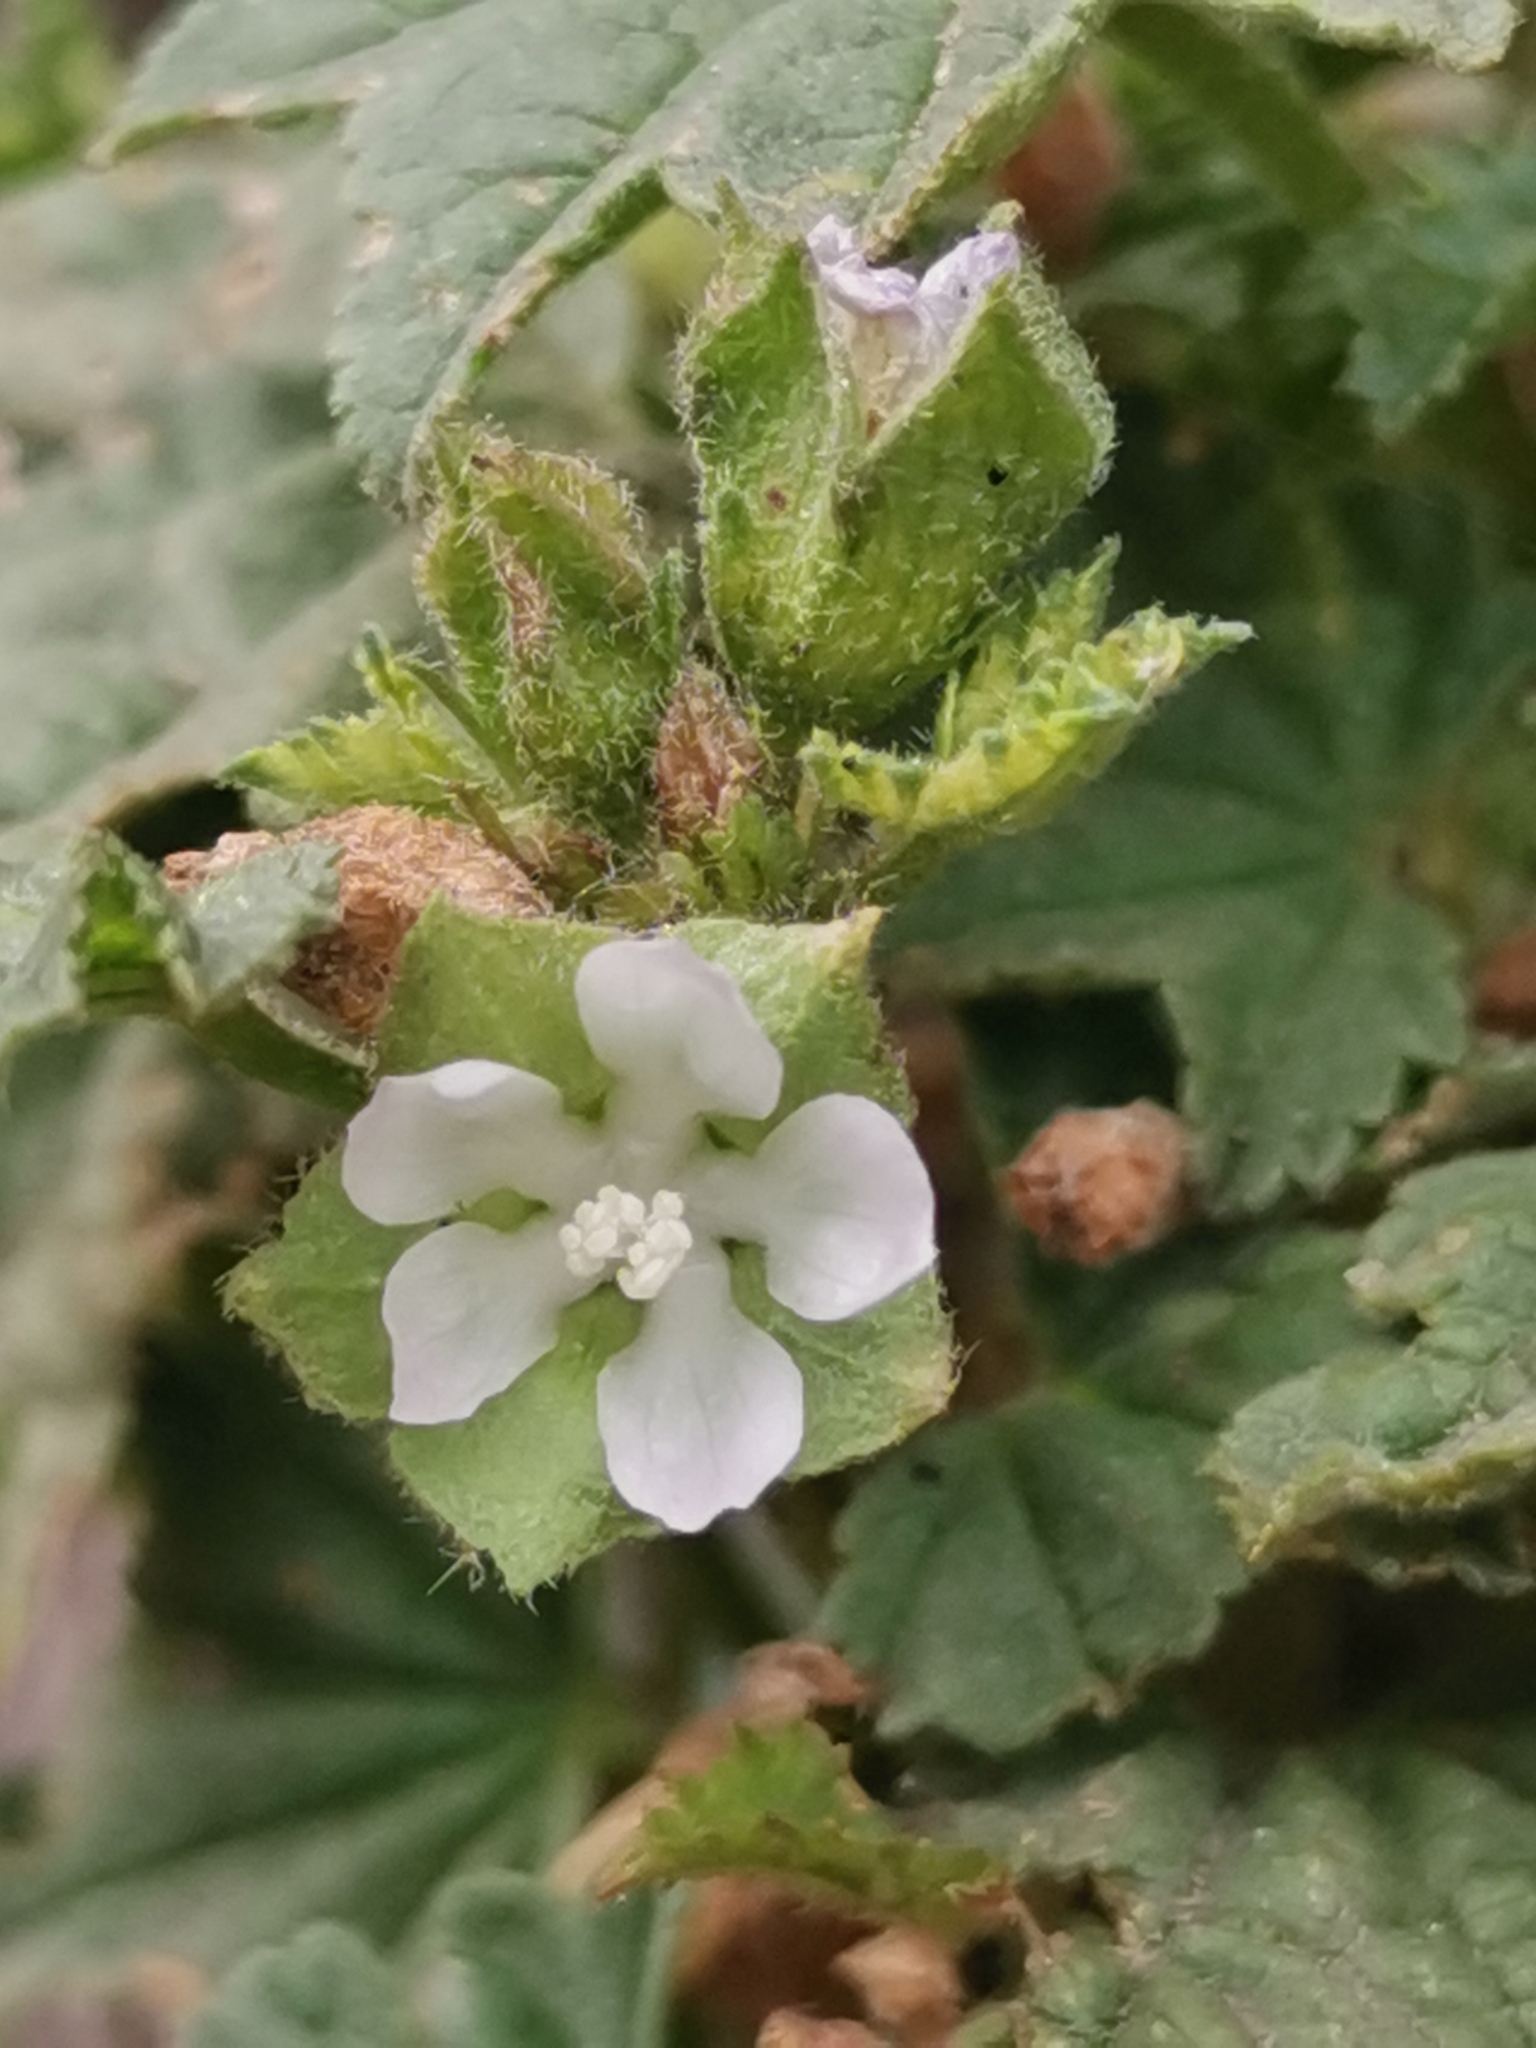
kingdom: Plantae
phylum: Tracheophyta
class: Magnoliopsida
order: Malvales
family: Malvaceae
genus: Malva
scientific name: Malva parviflora
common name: Least mallow
